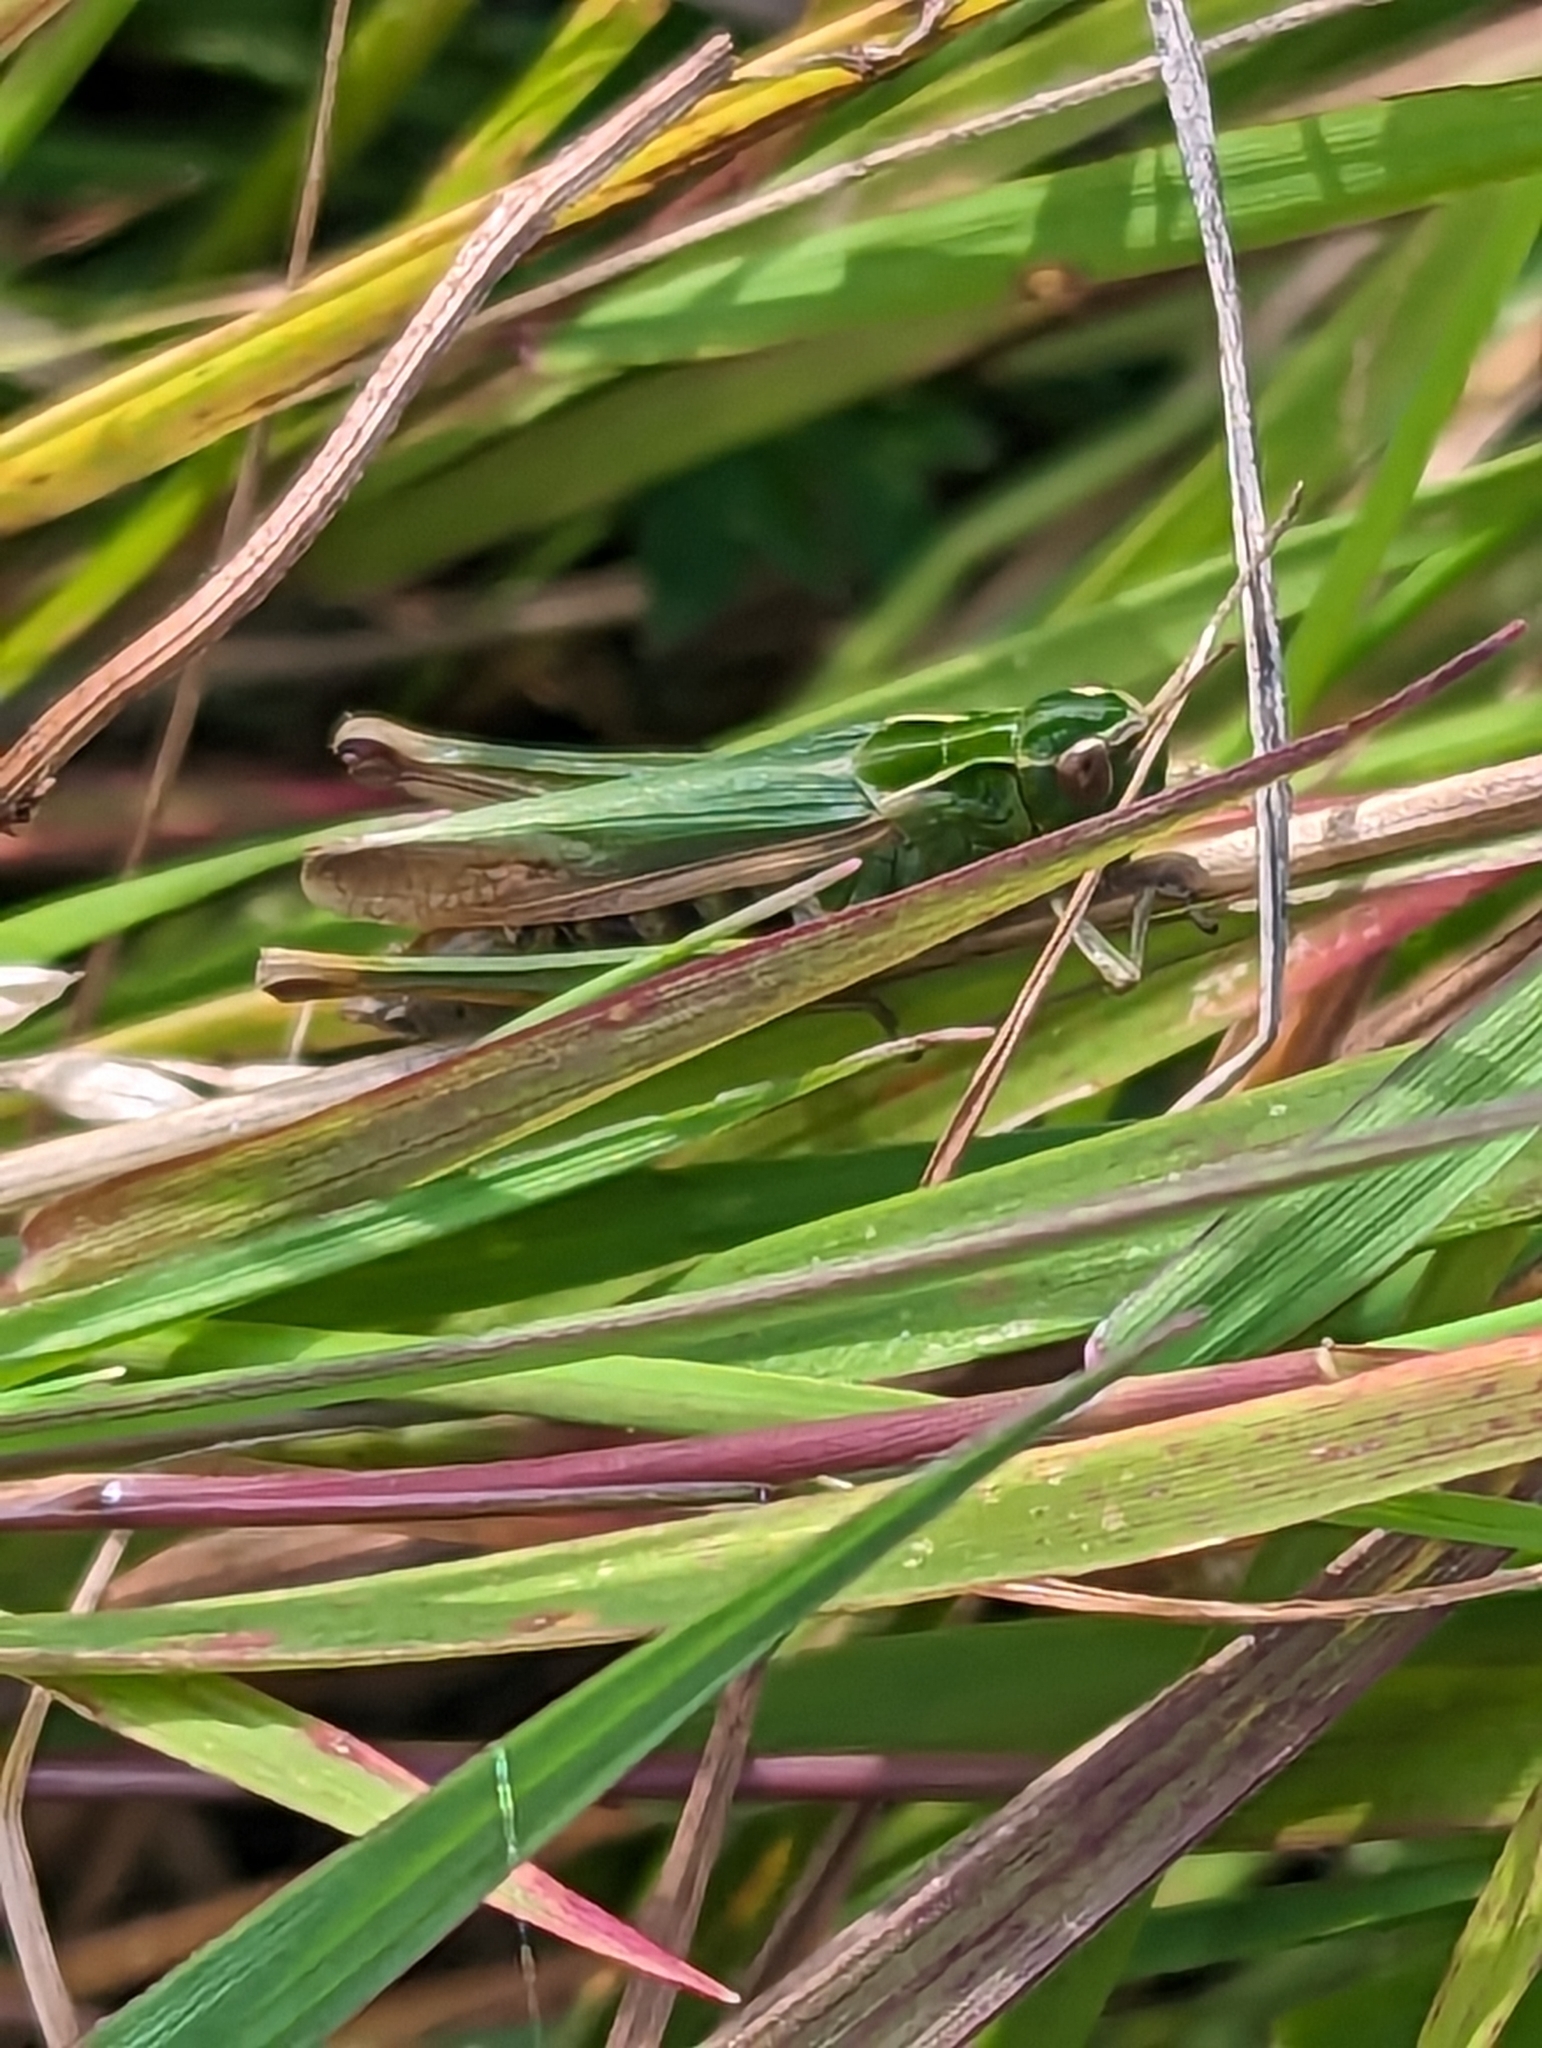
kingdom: Animalia
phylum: Arthropoda
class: Insecta
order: Orthoptera
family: Acrididae
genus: Omocestus
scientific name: Omocestus viridulus
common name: Common green grasshopper
